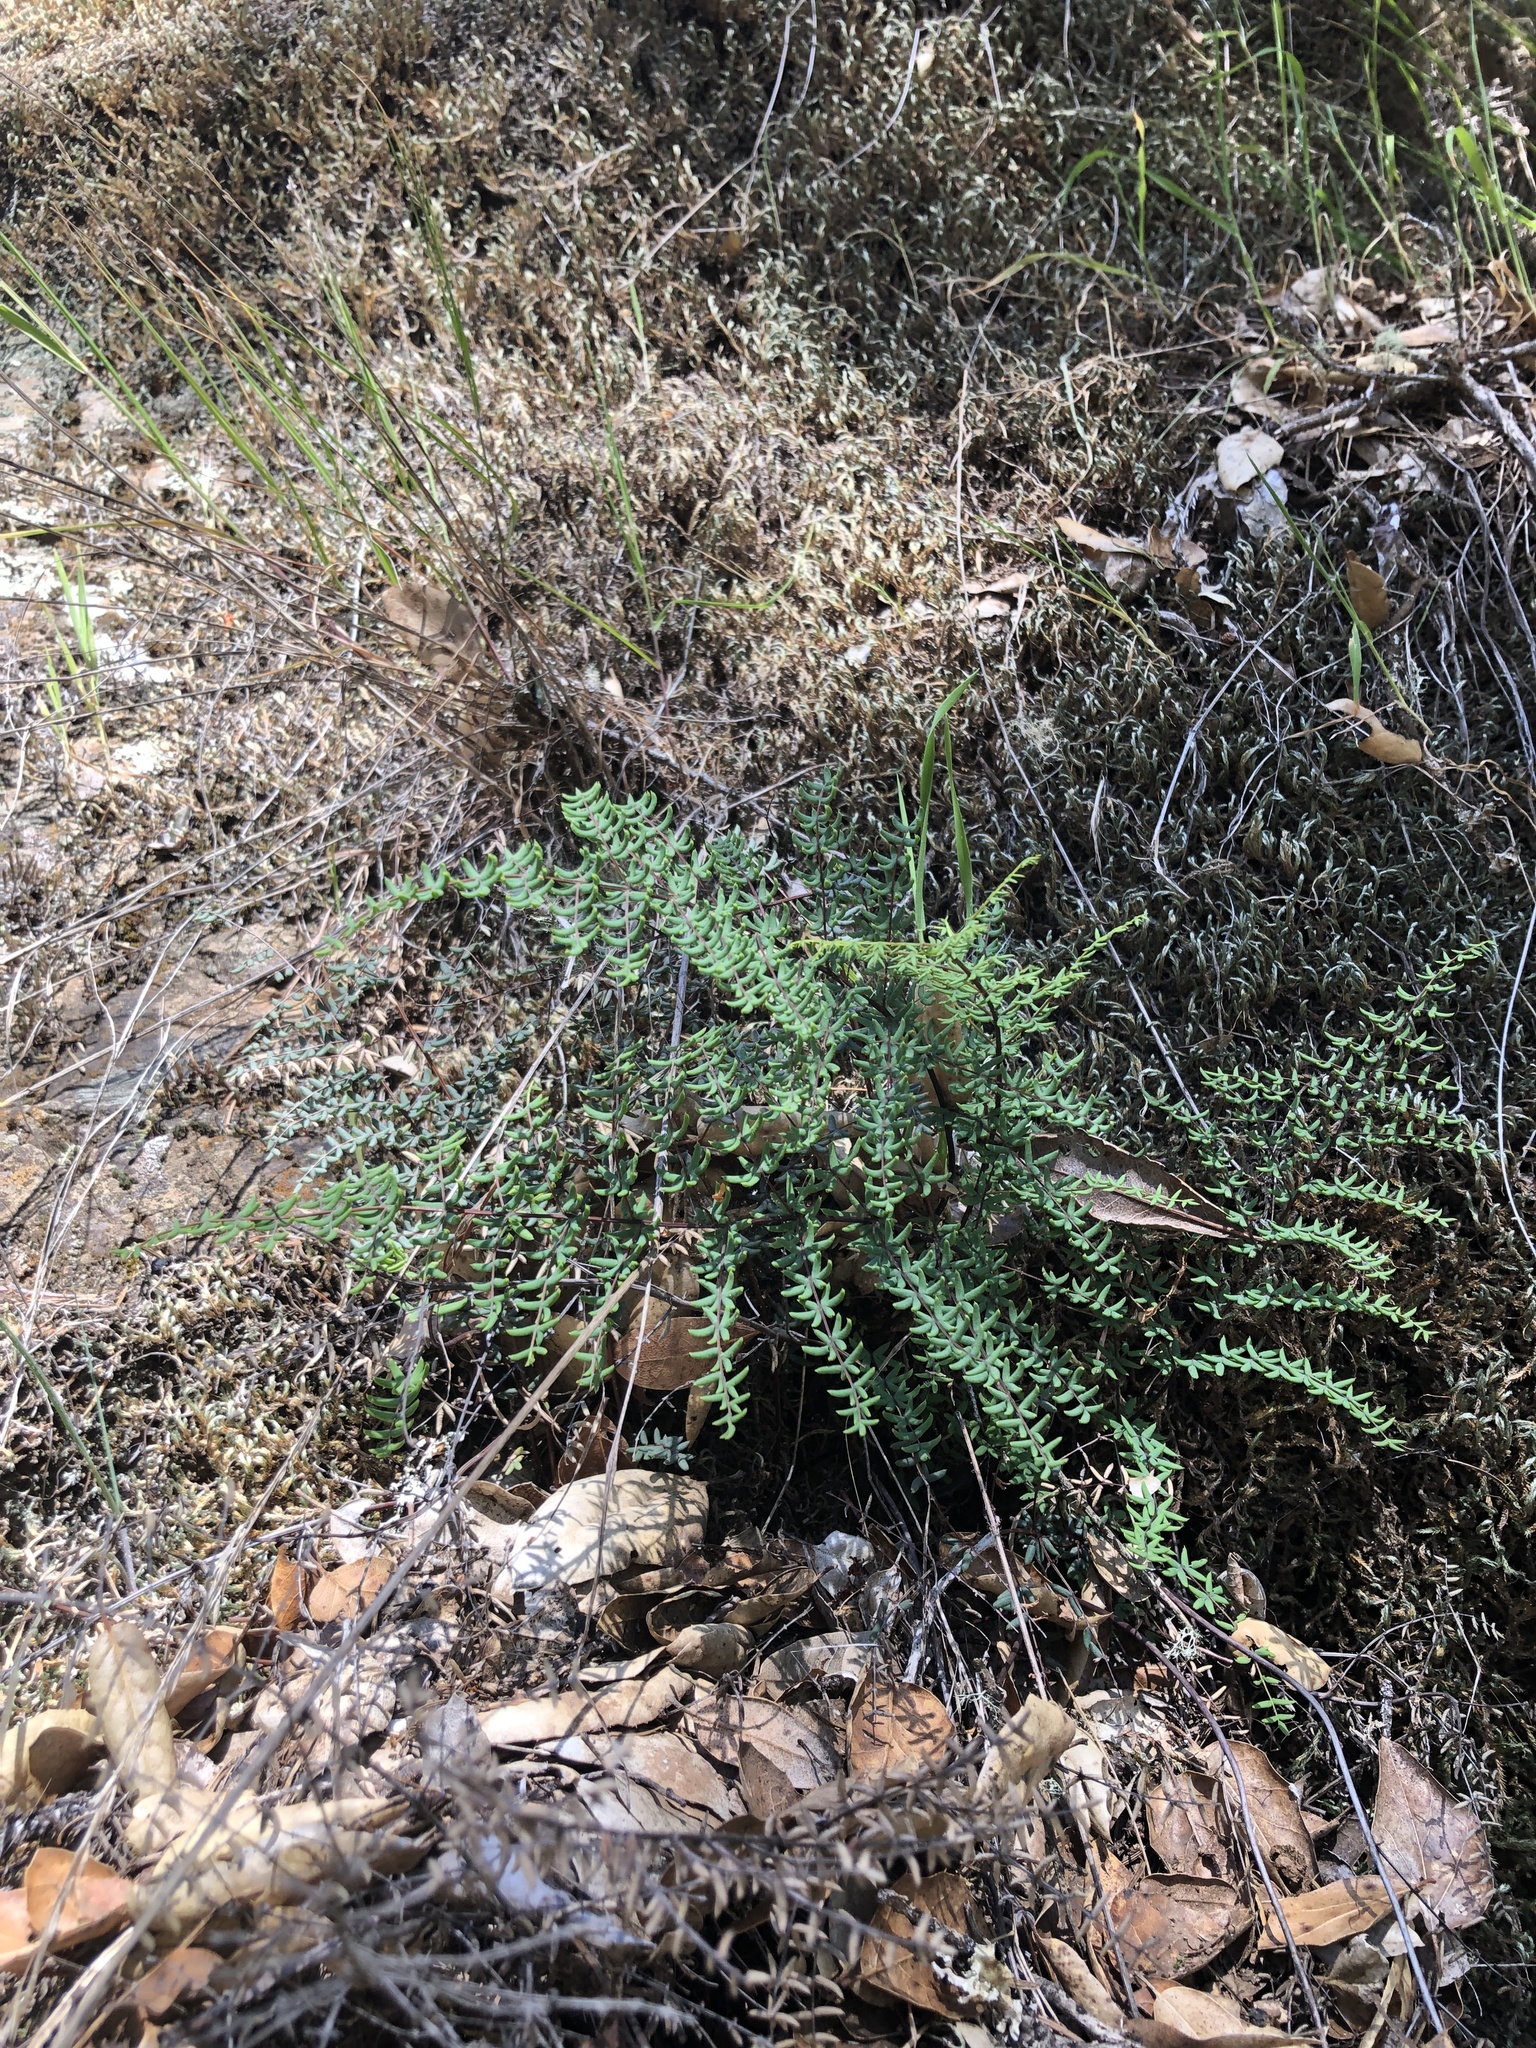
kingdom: Plantae
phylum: Tracheophyta
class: Polypodiopsida
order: Polypodiales
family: Pteridaceae
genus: Pellaea
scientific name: Pellaea mucronata
